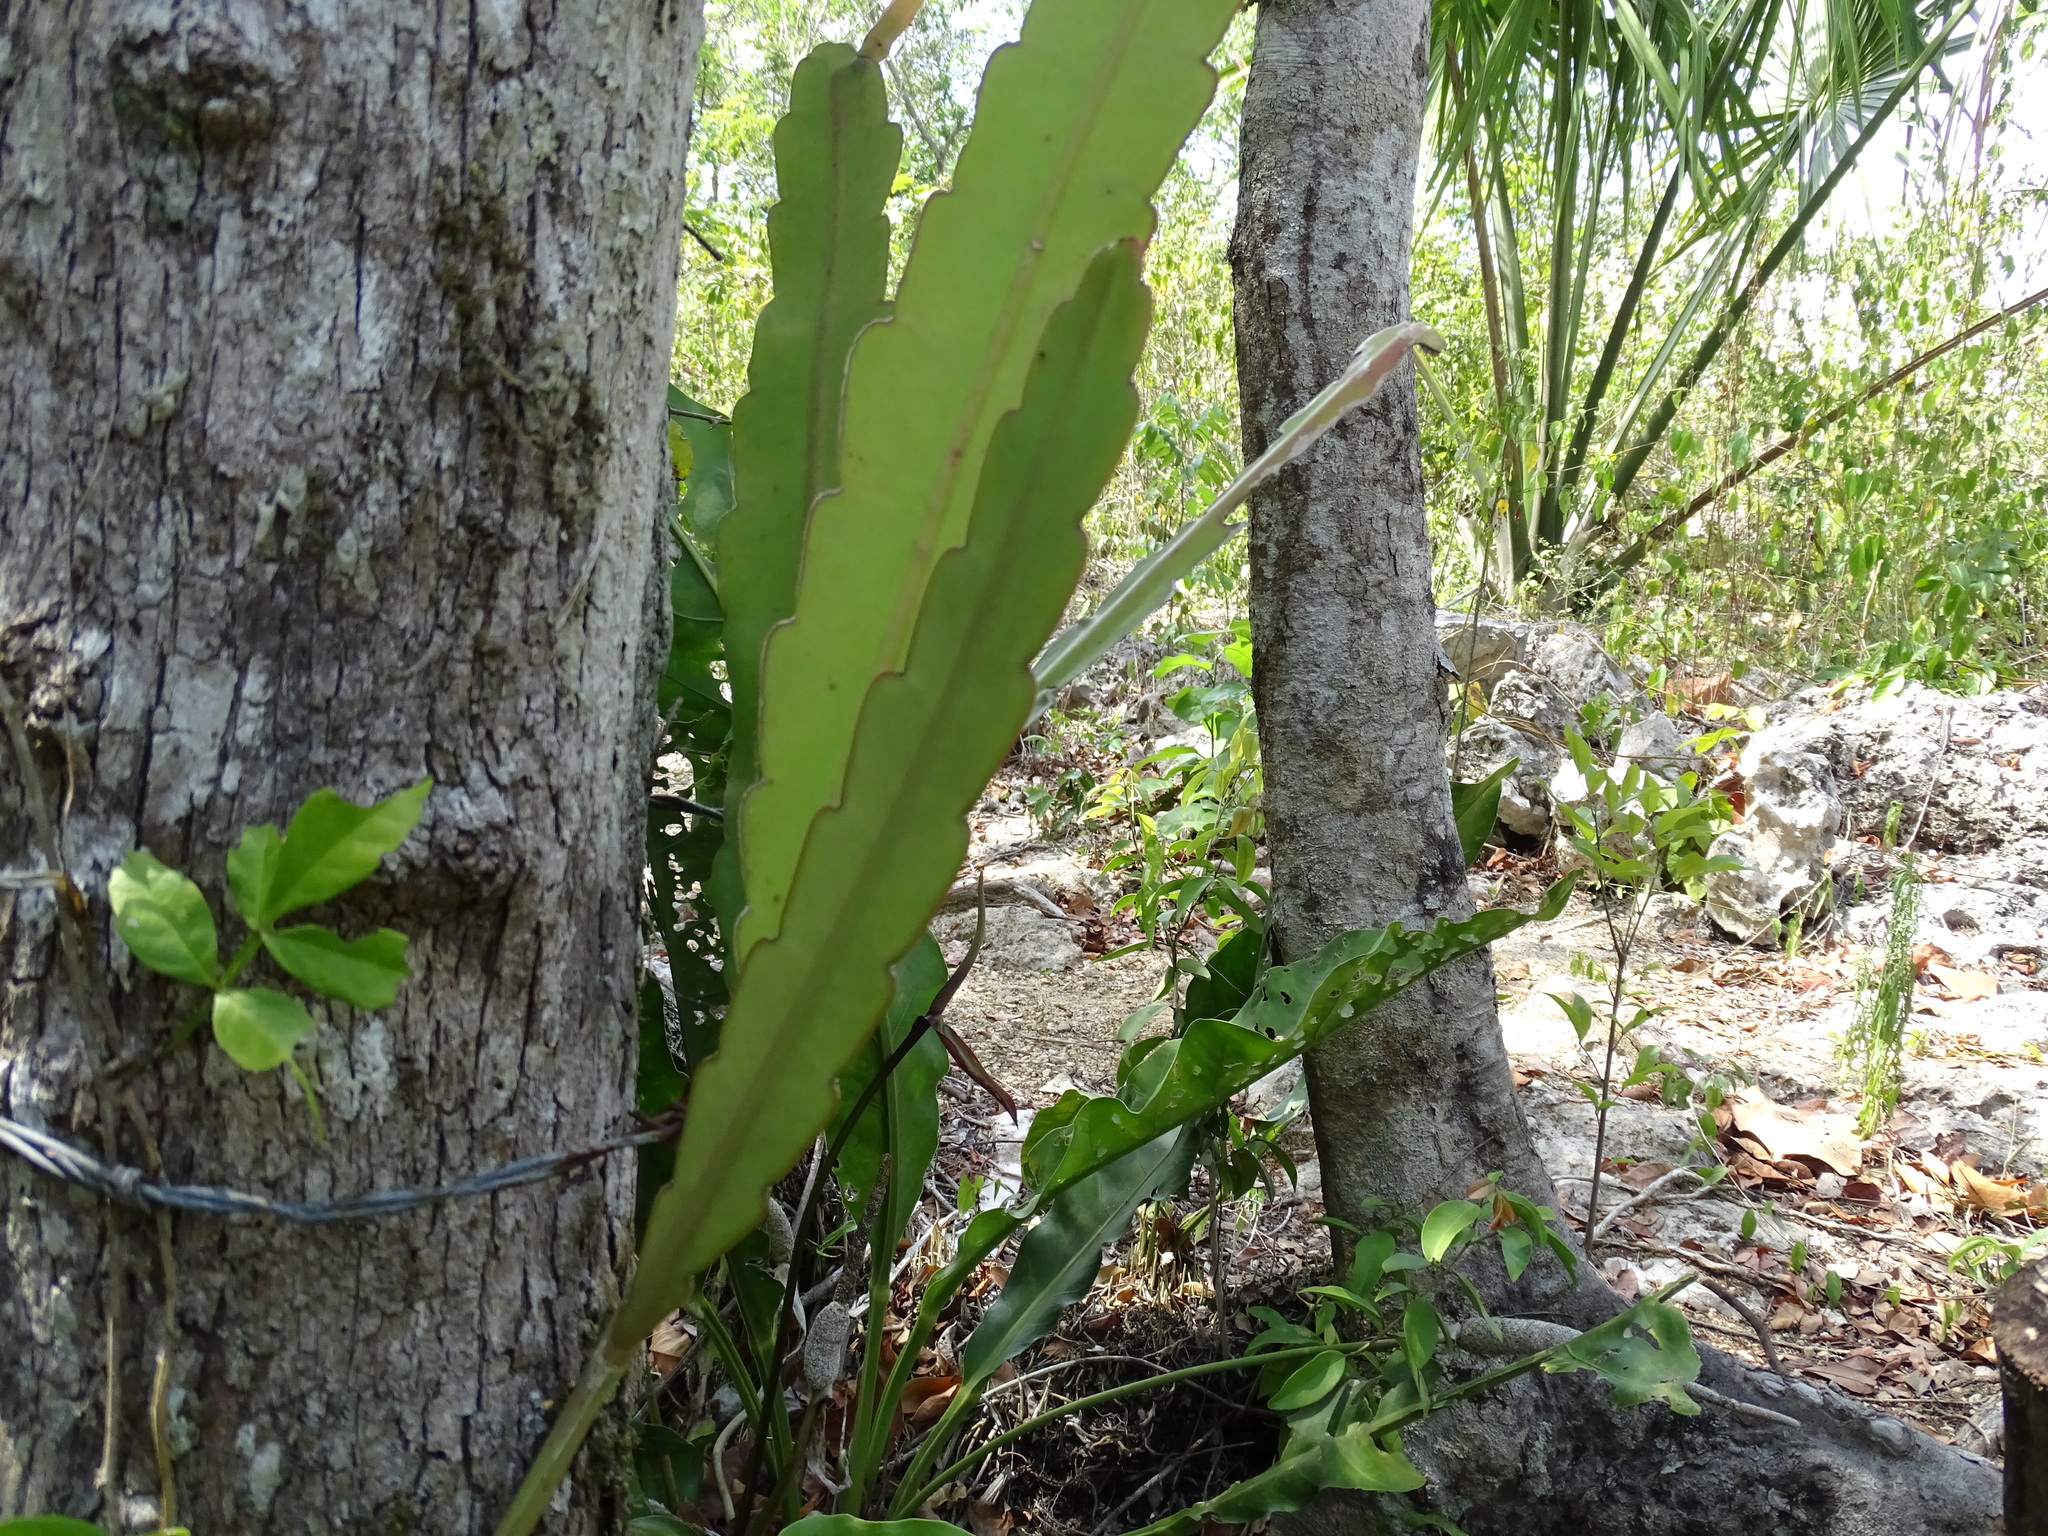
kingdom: Plantae
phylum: Tracheophyta
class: Magnoliopsida
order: Caryophyllales
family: Cactaceae
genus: Epiphyllum
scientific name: Epiphyllum hookeri
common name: Climbing cactus
